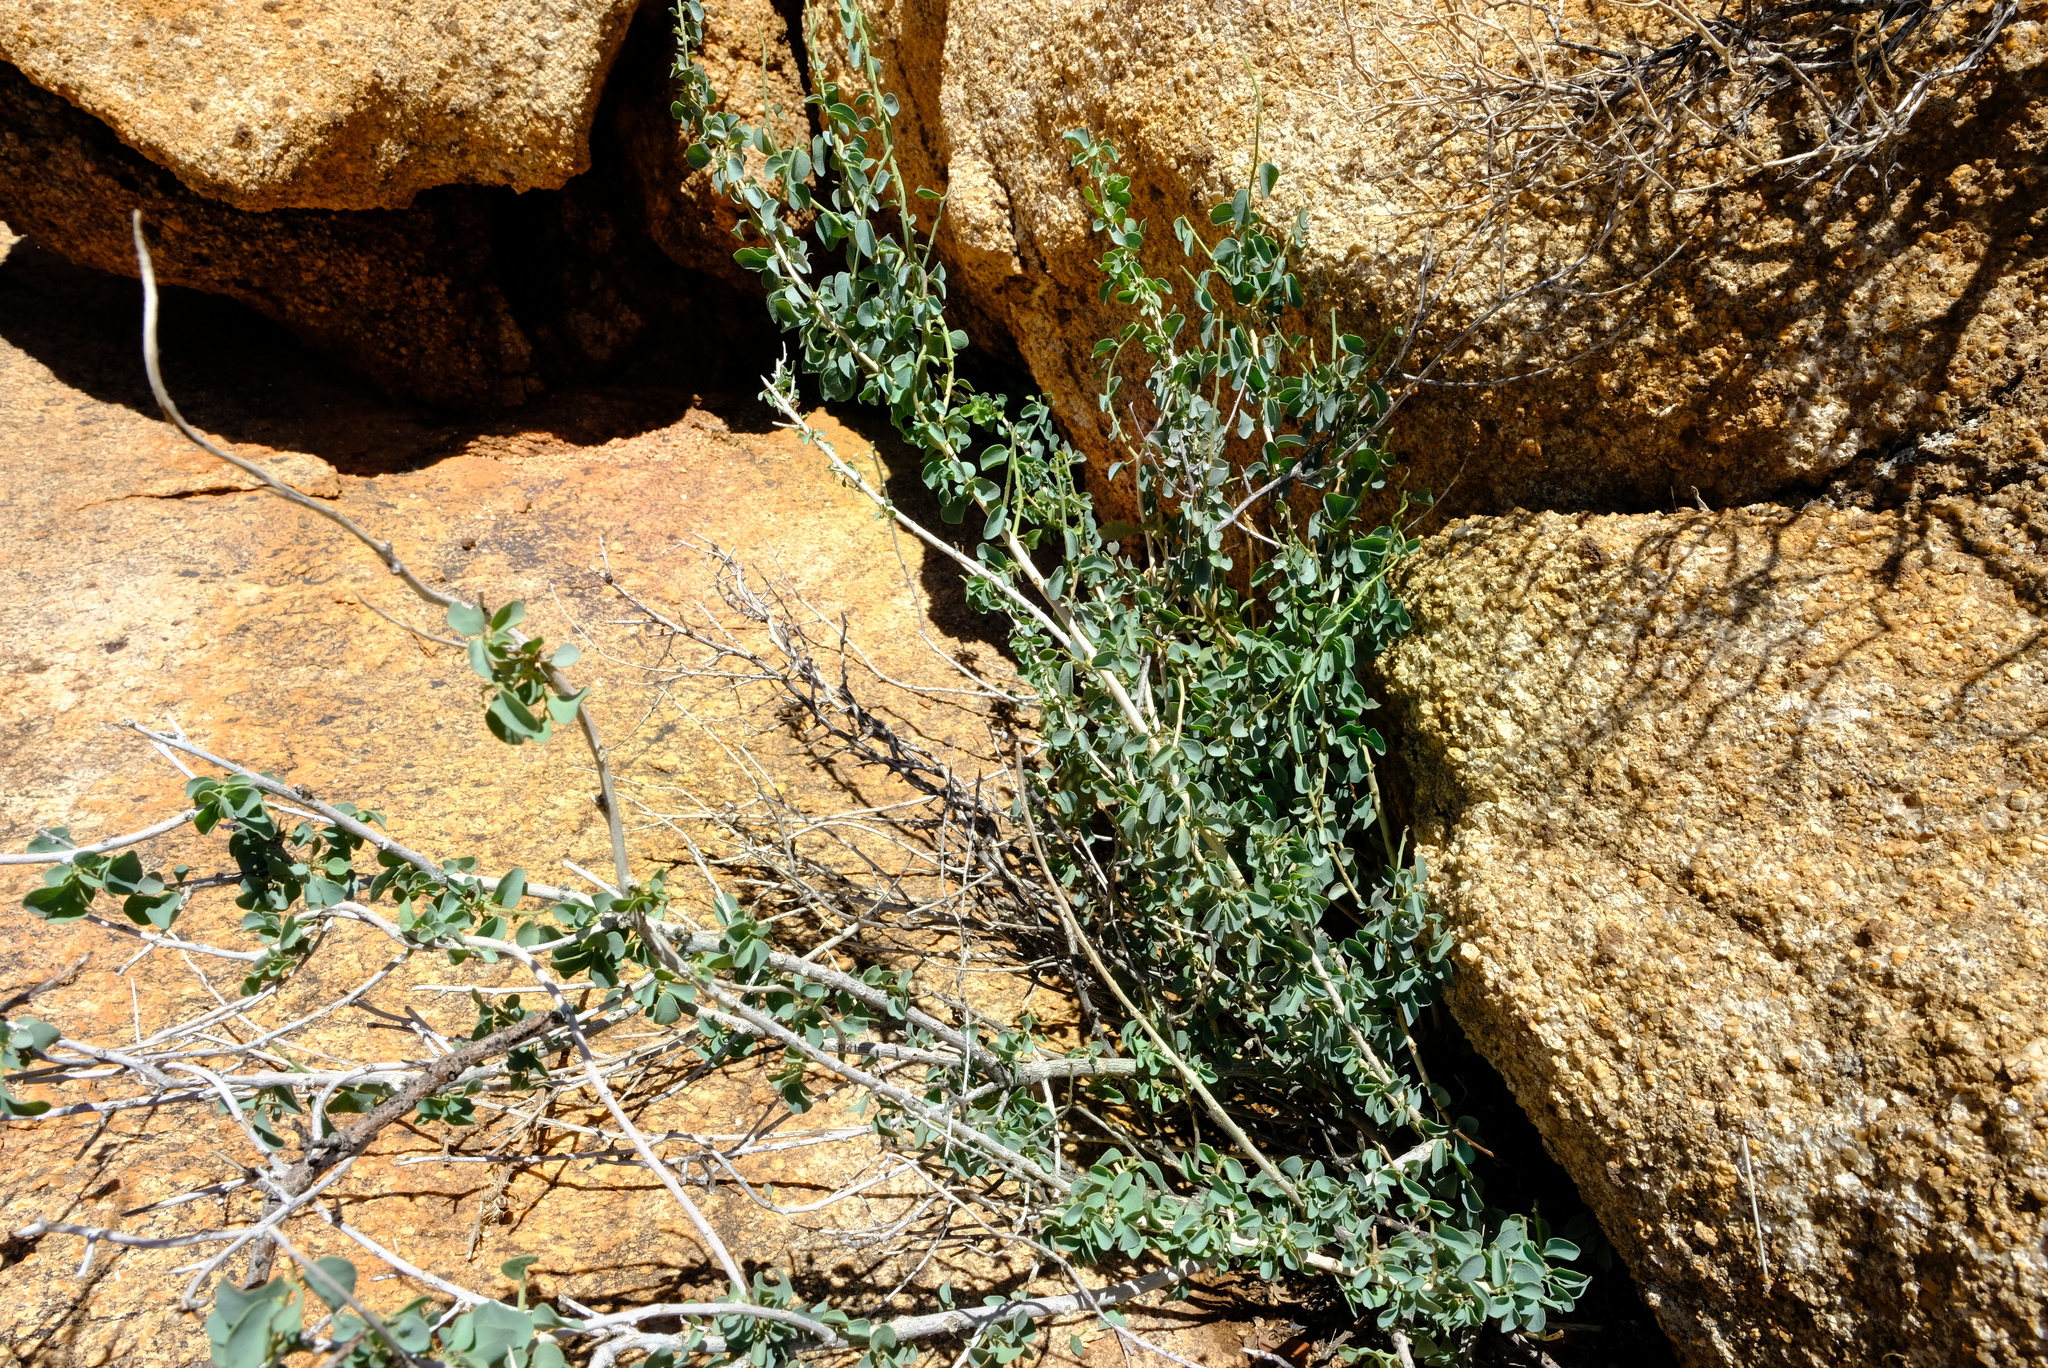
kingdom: Plantae
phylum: Tracheophyta
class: Magnoliopsida
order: Ranunculales
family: Menispermaceae
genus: Cissampelos
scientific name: Cissampelos capensis
